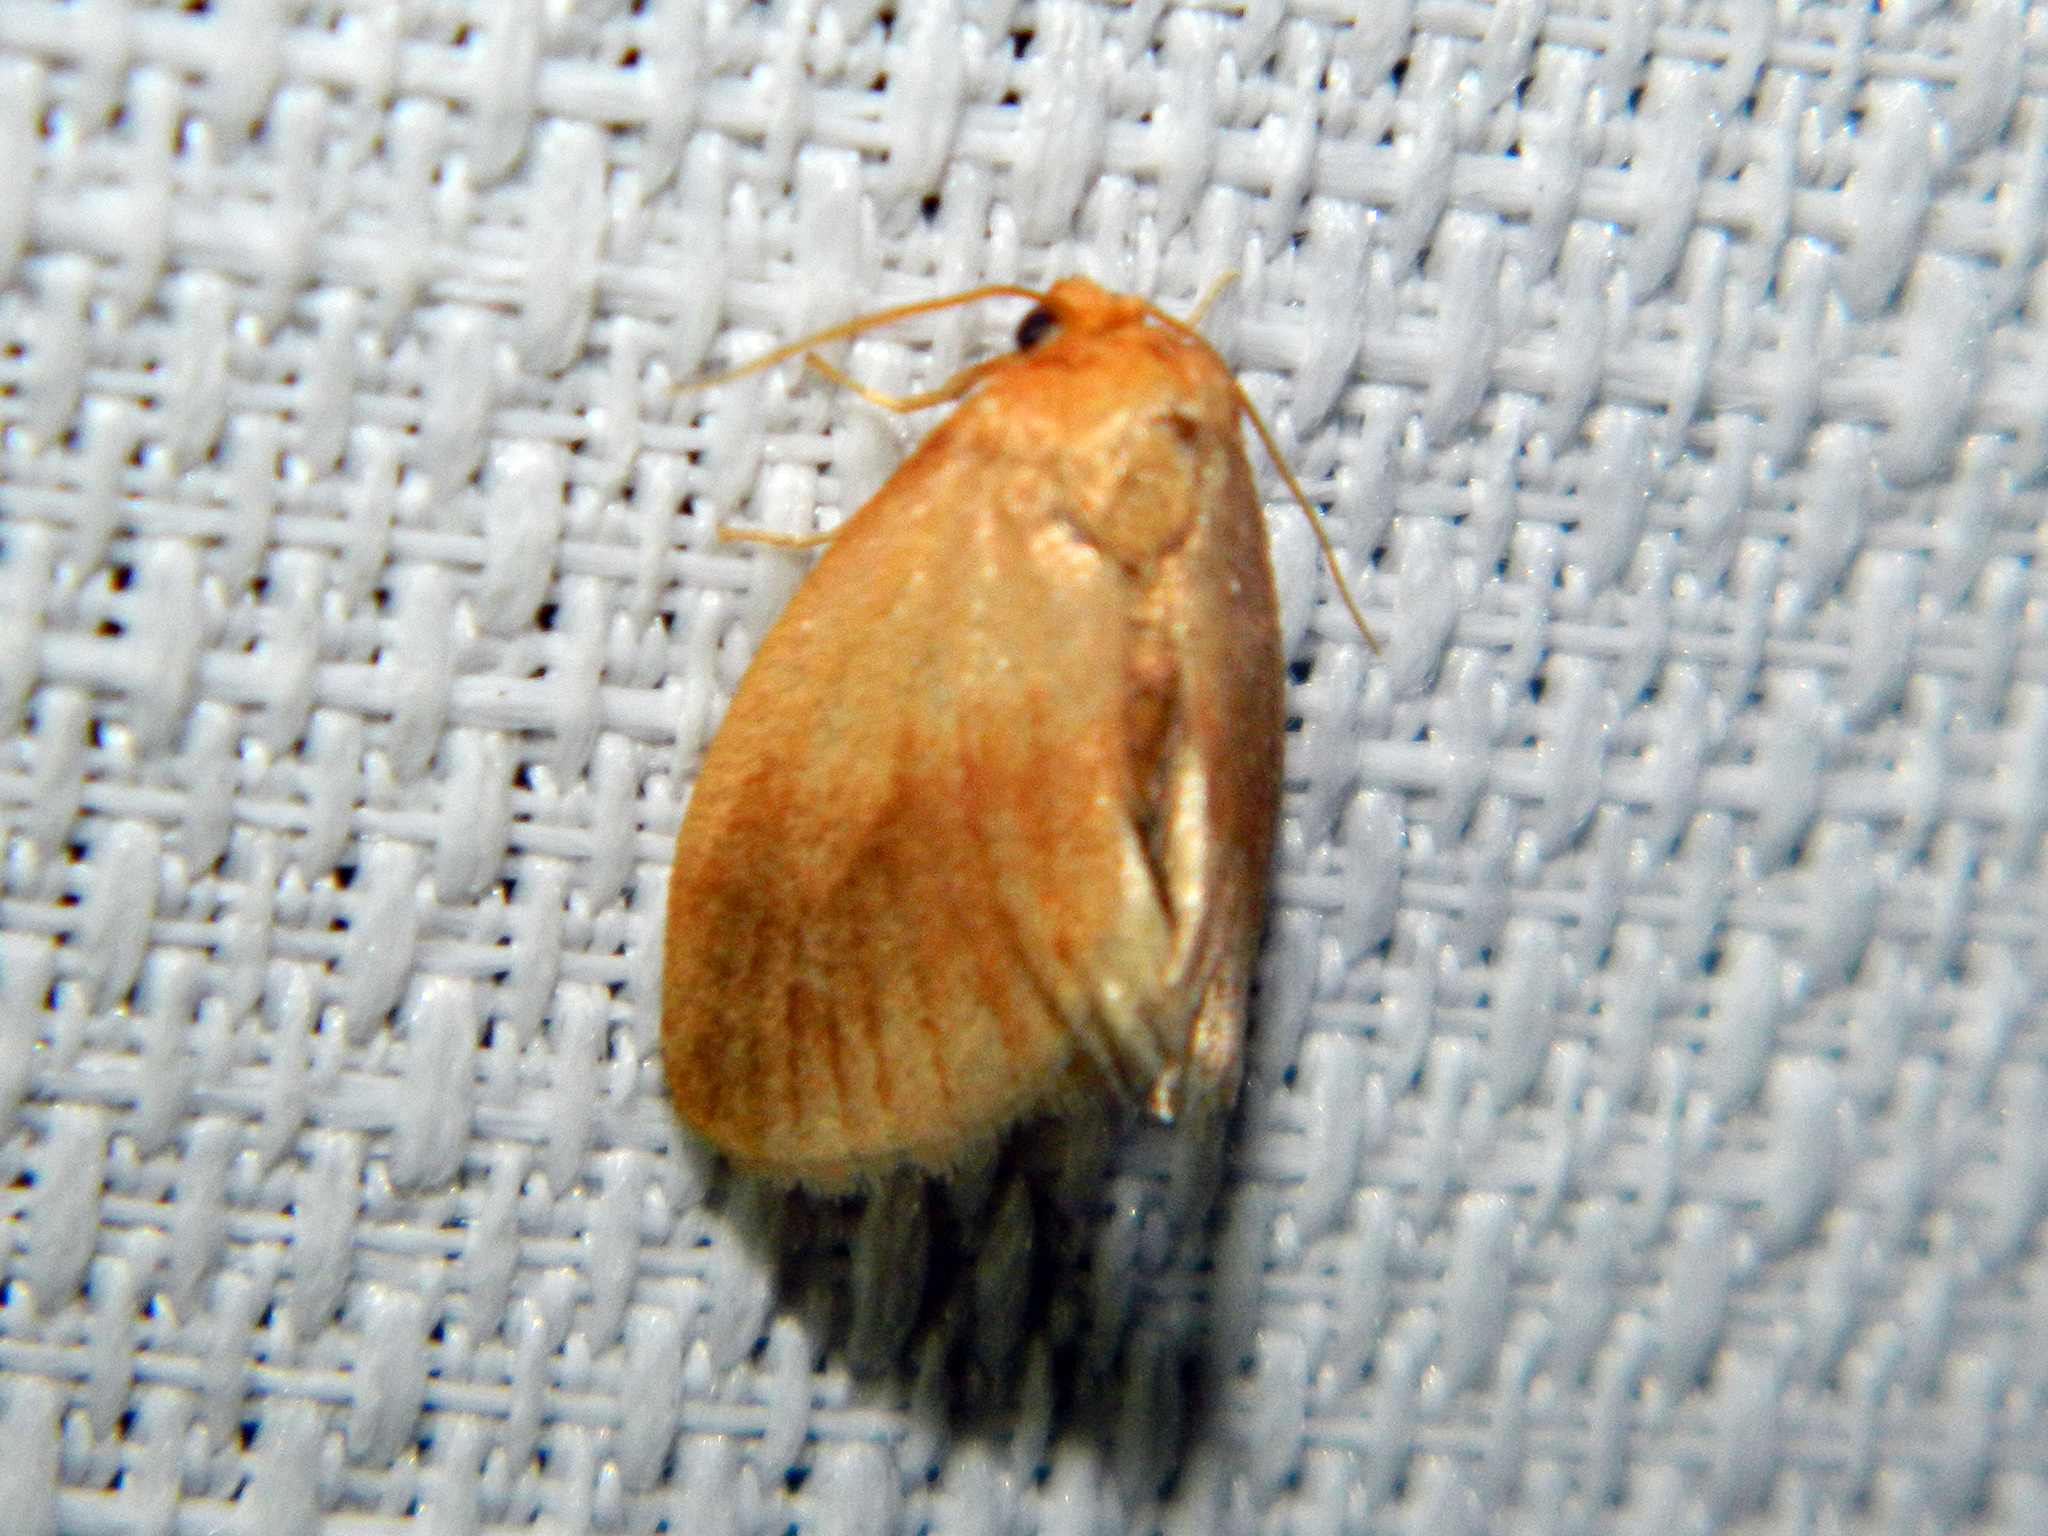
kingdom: Animalia
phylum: Arthropoda
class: Insecta
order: Lepidoptera
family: Limacodidae
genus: Tortricidia
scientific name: Tortricidia testacea
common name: Early button slug moth
